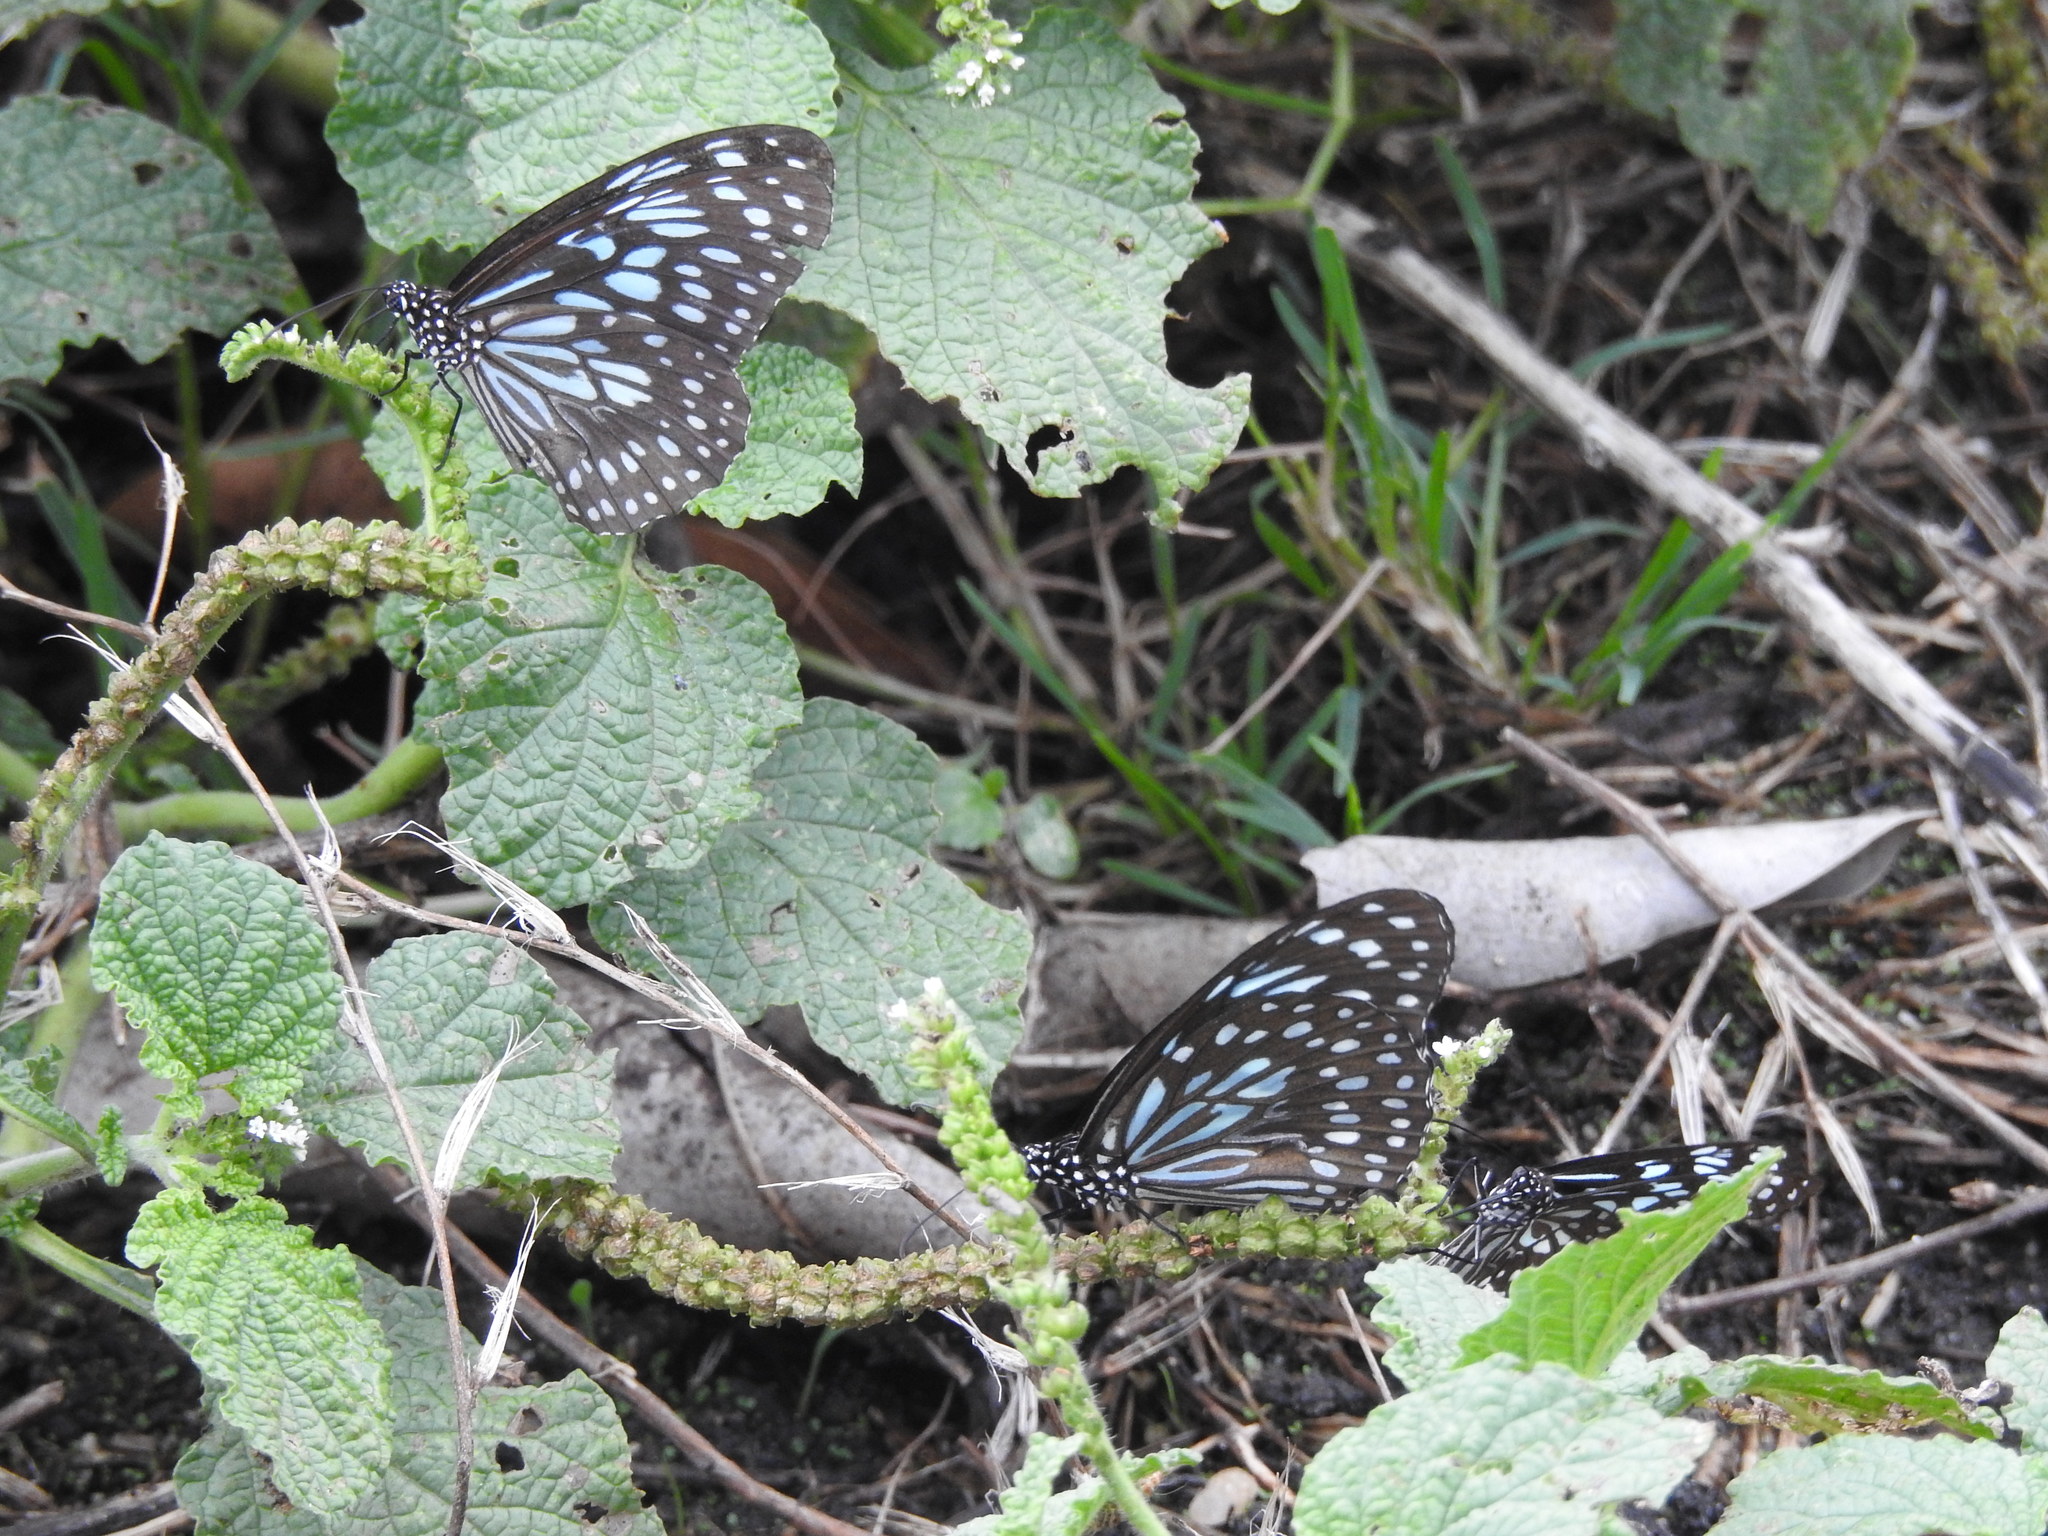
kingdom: Animalia
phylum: Arthropoda
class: Insecta
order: Lepidoptera
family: Nymphalidae
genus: Tirumala
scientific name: Tirumala septentrionis
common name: Dark blue tiger butterfly
